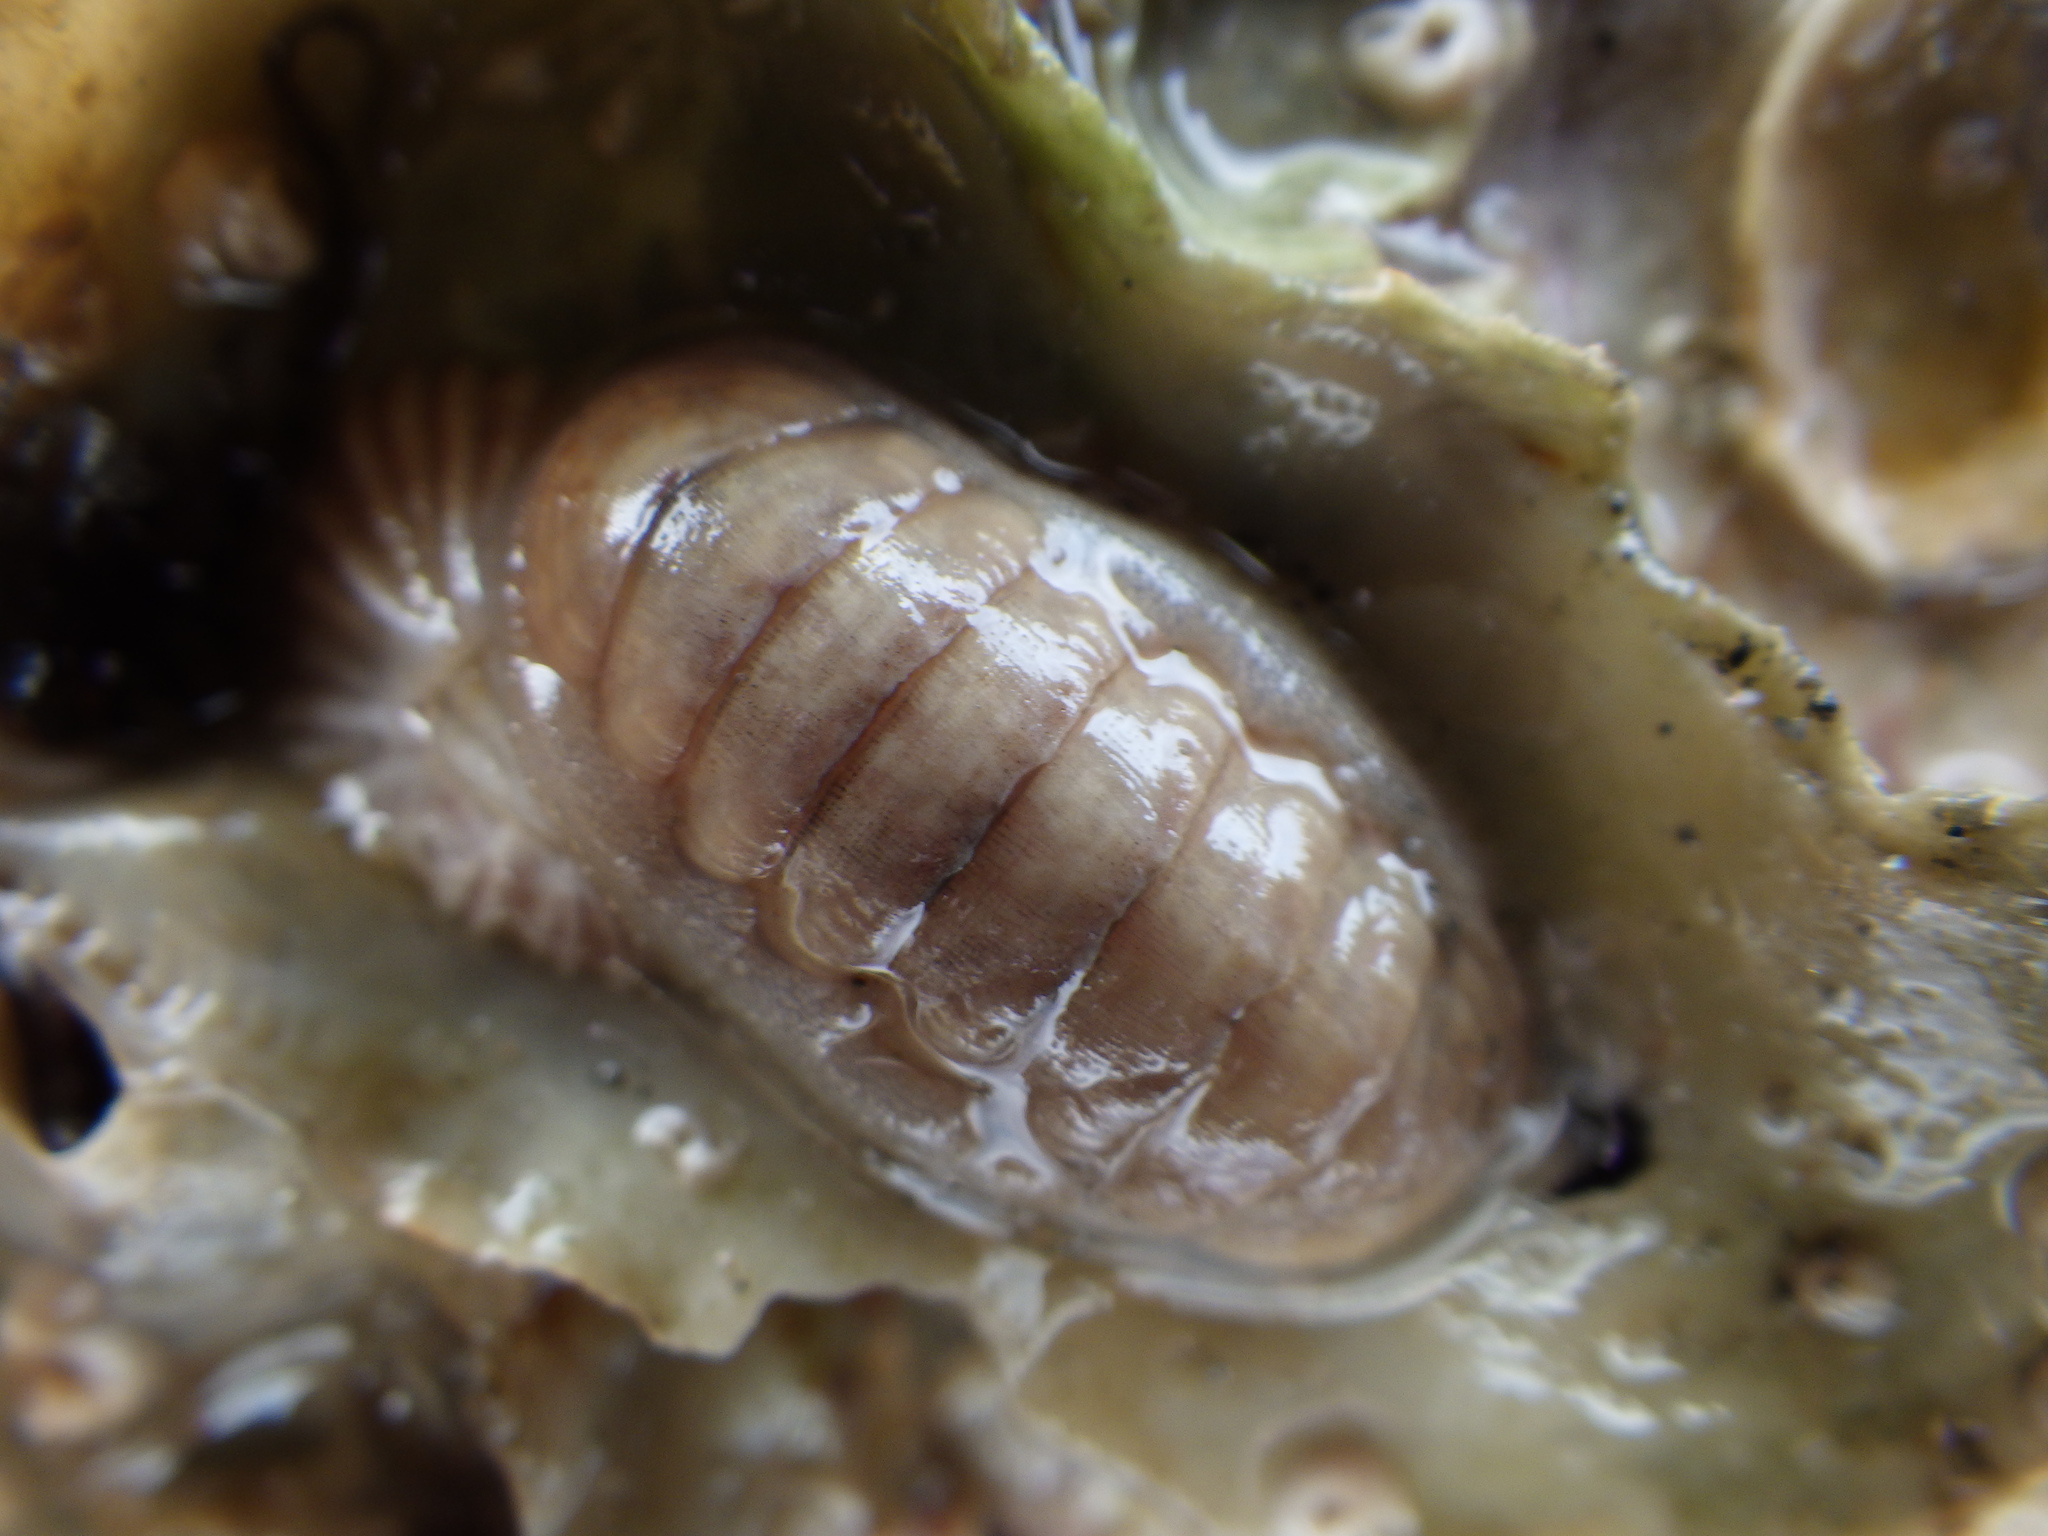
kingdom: Animalia
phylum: Mollusca
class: Polyplacophora
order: Lepidopleurida
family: Leptochitonidae
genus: Leptochiton
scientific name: Leptochiton inquinatus
